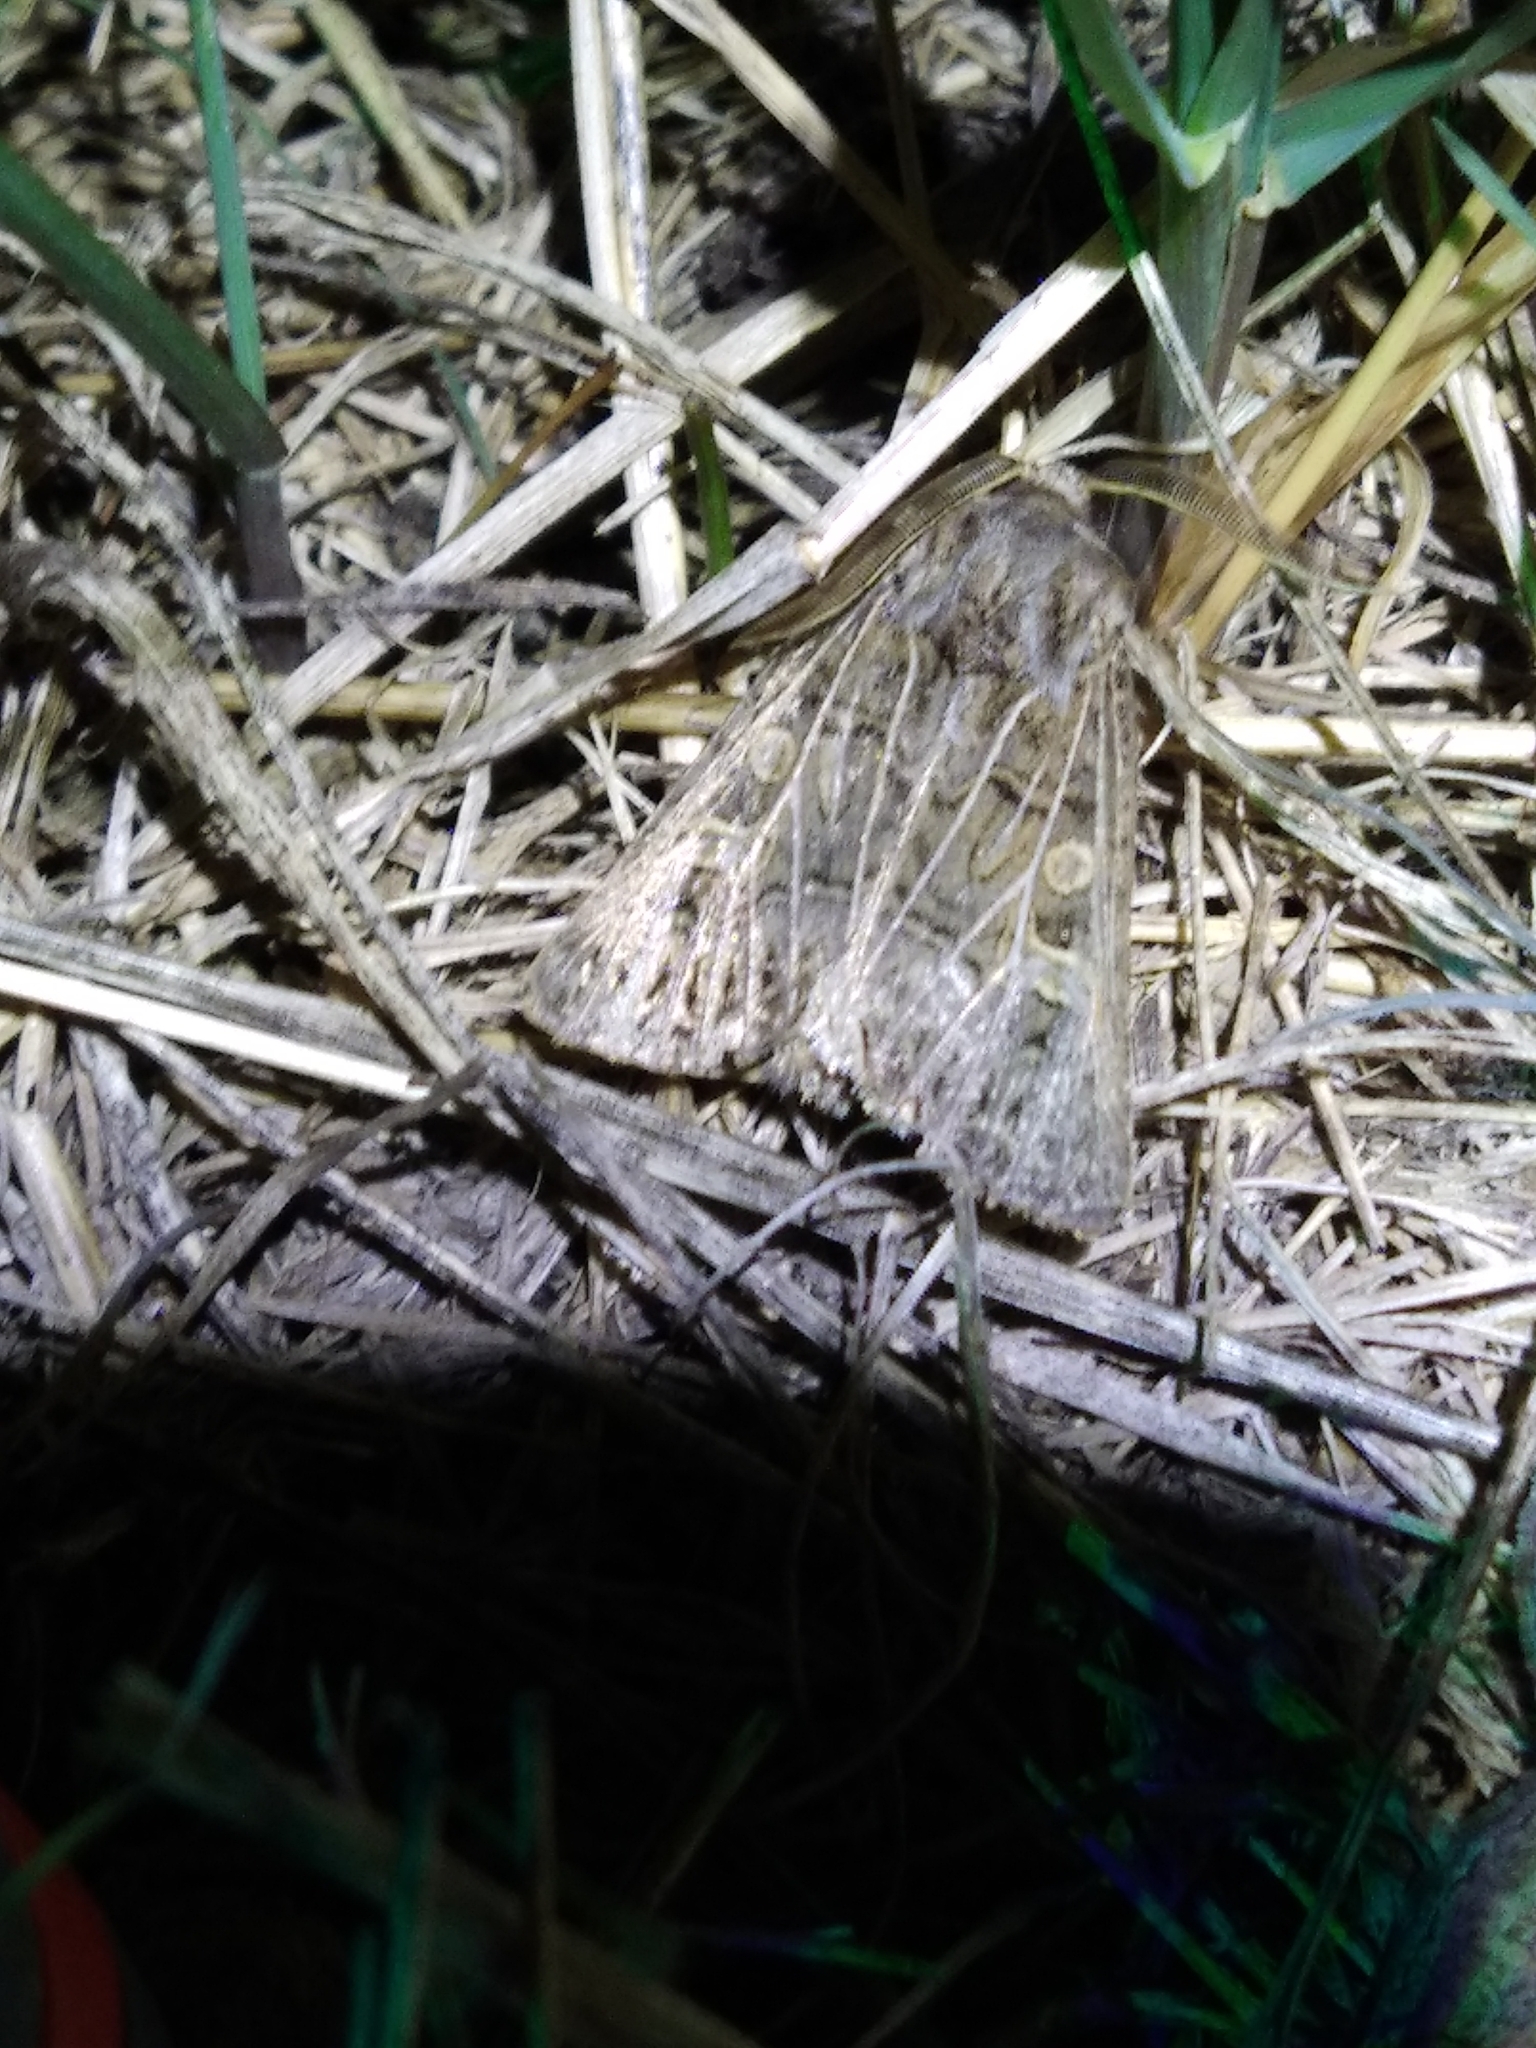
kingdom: Animalia
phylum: Arthropoda
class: Insecta
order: Lepidoptera
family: Noctuidae
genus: Tholera
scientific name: Tholera decimalis
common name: Feathered gothic
